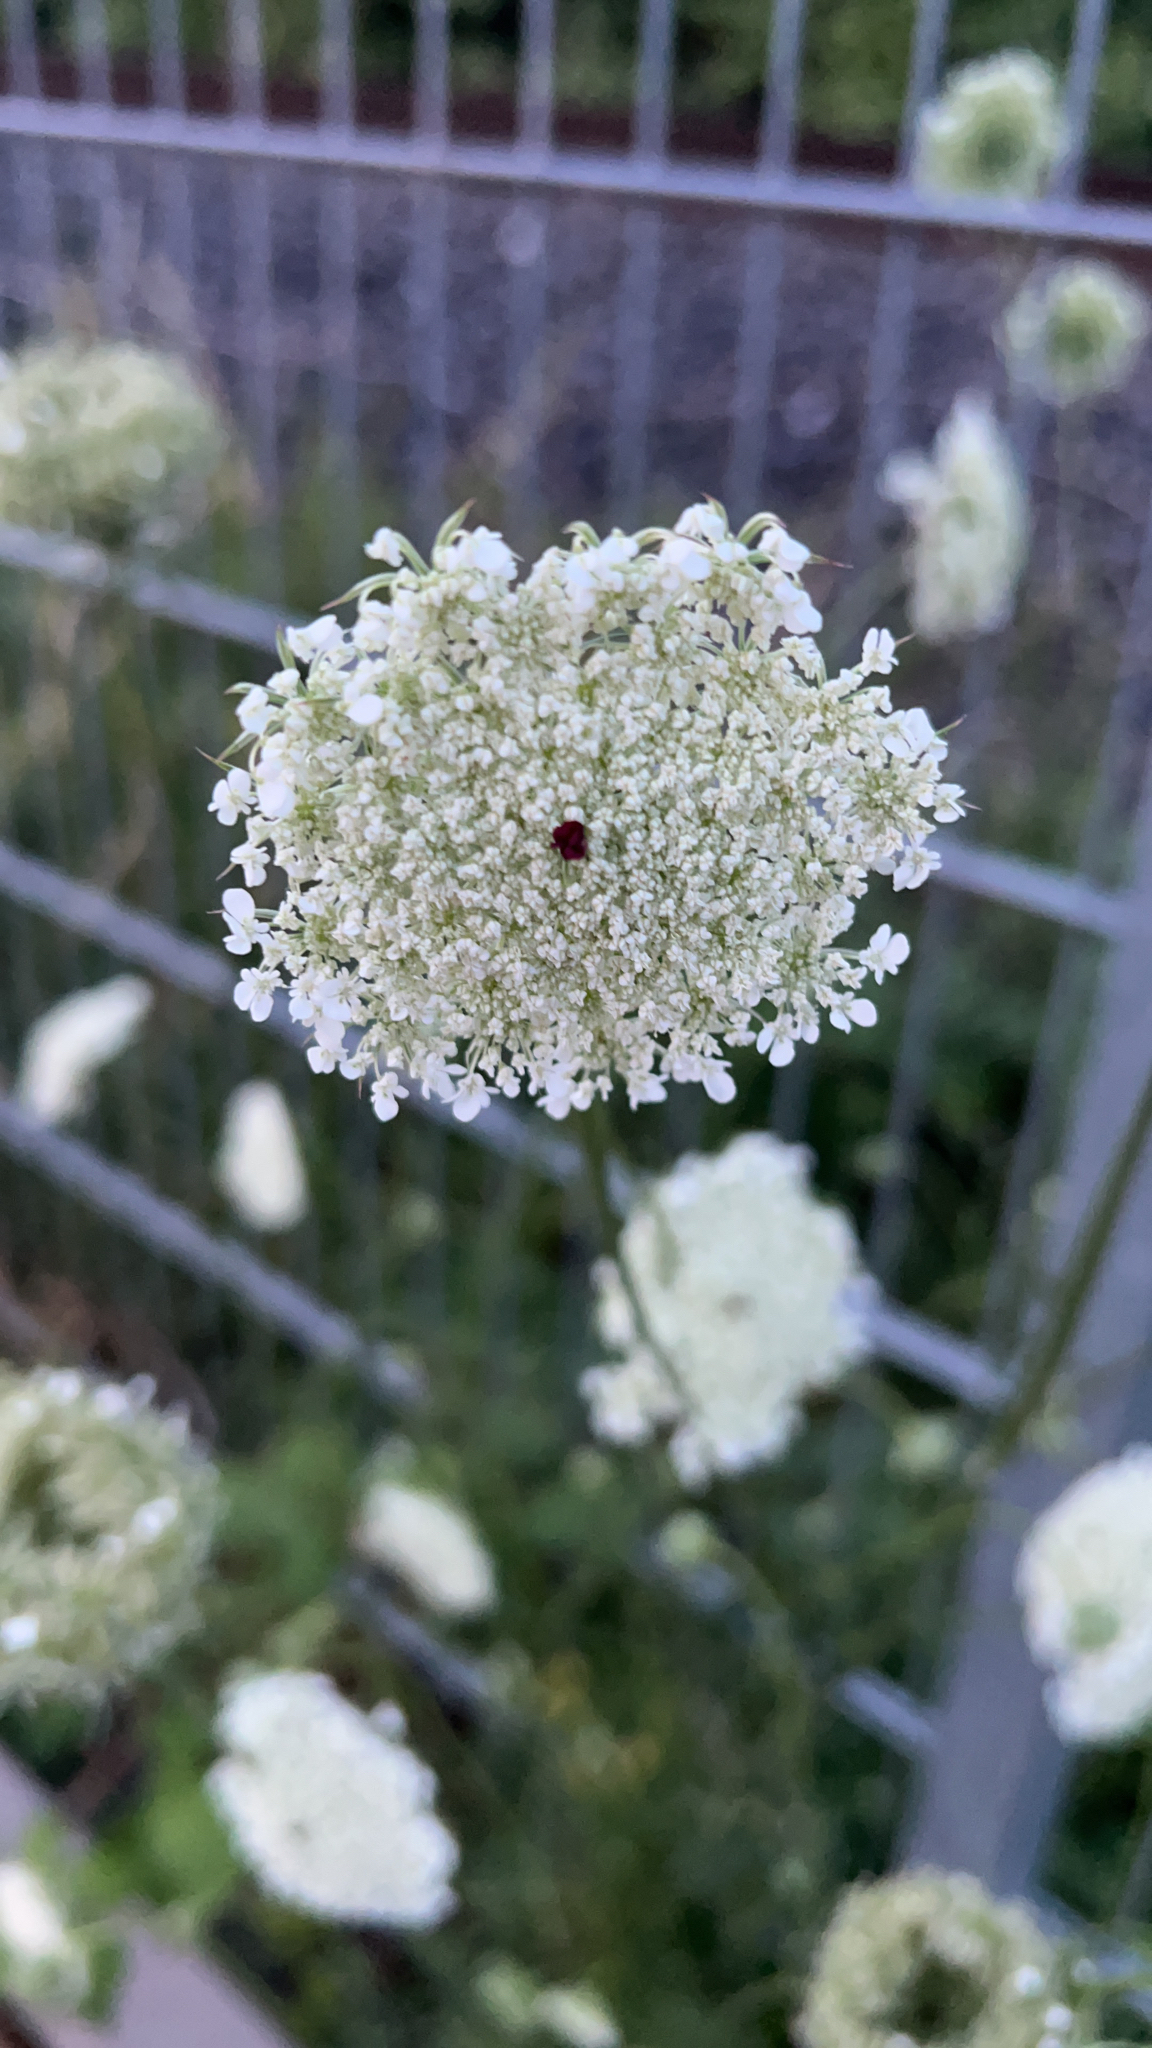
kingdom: Plantae
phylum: Tracheophyta
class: Magnoliopsida
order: Apiales
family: Apiaceae
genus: Daucus
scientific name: Daucus carota
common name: Wild carrot
